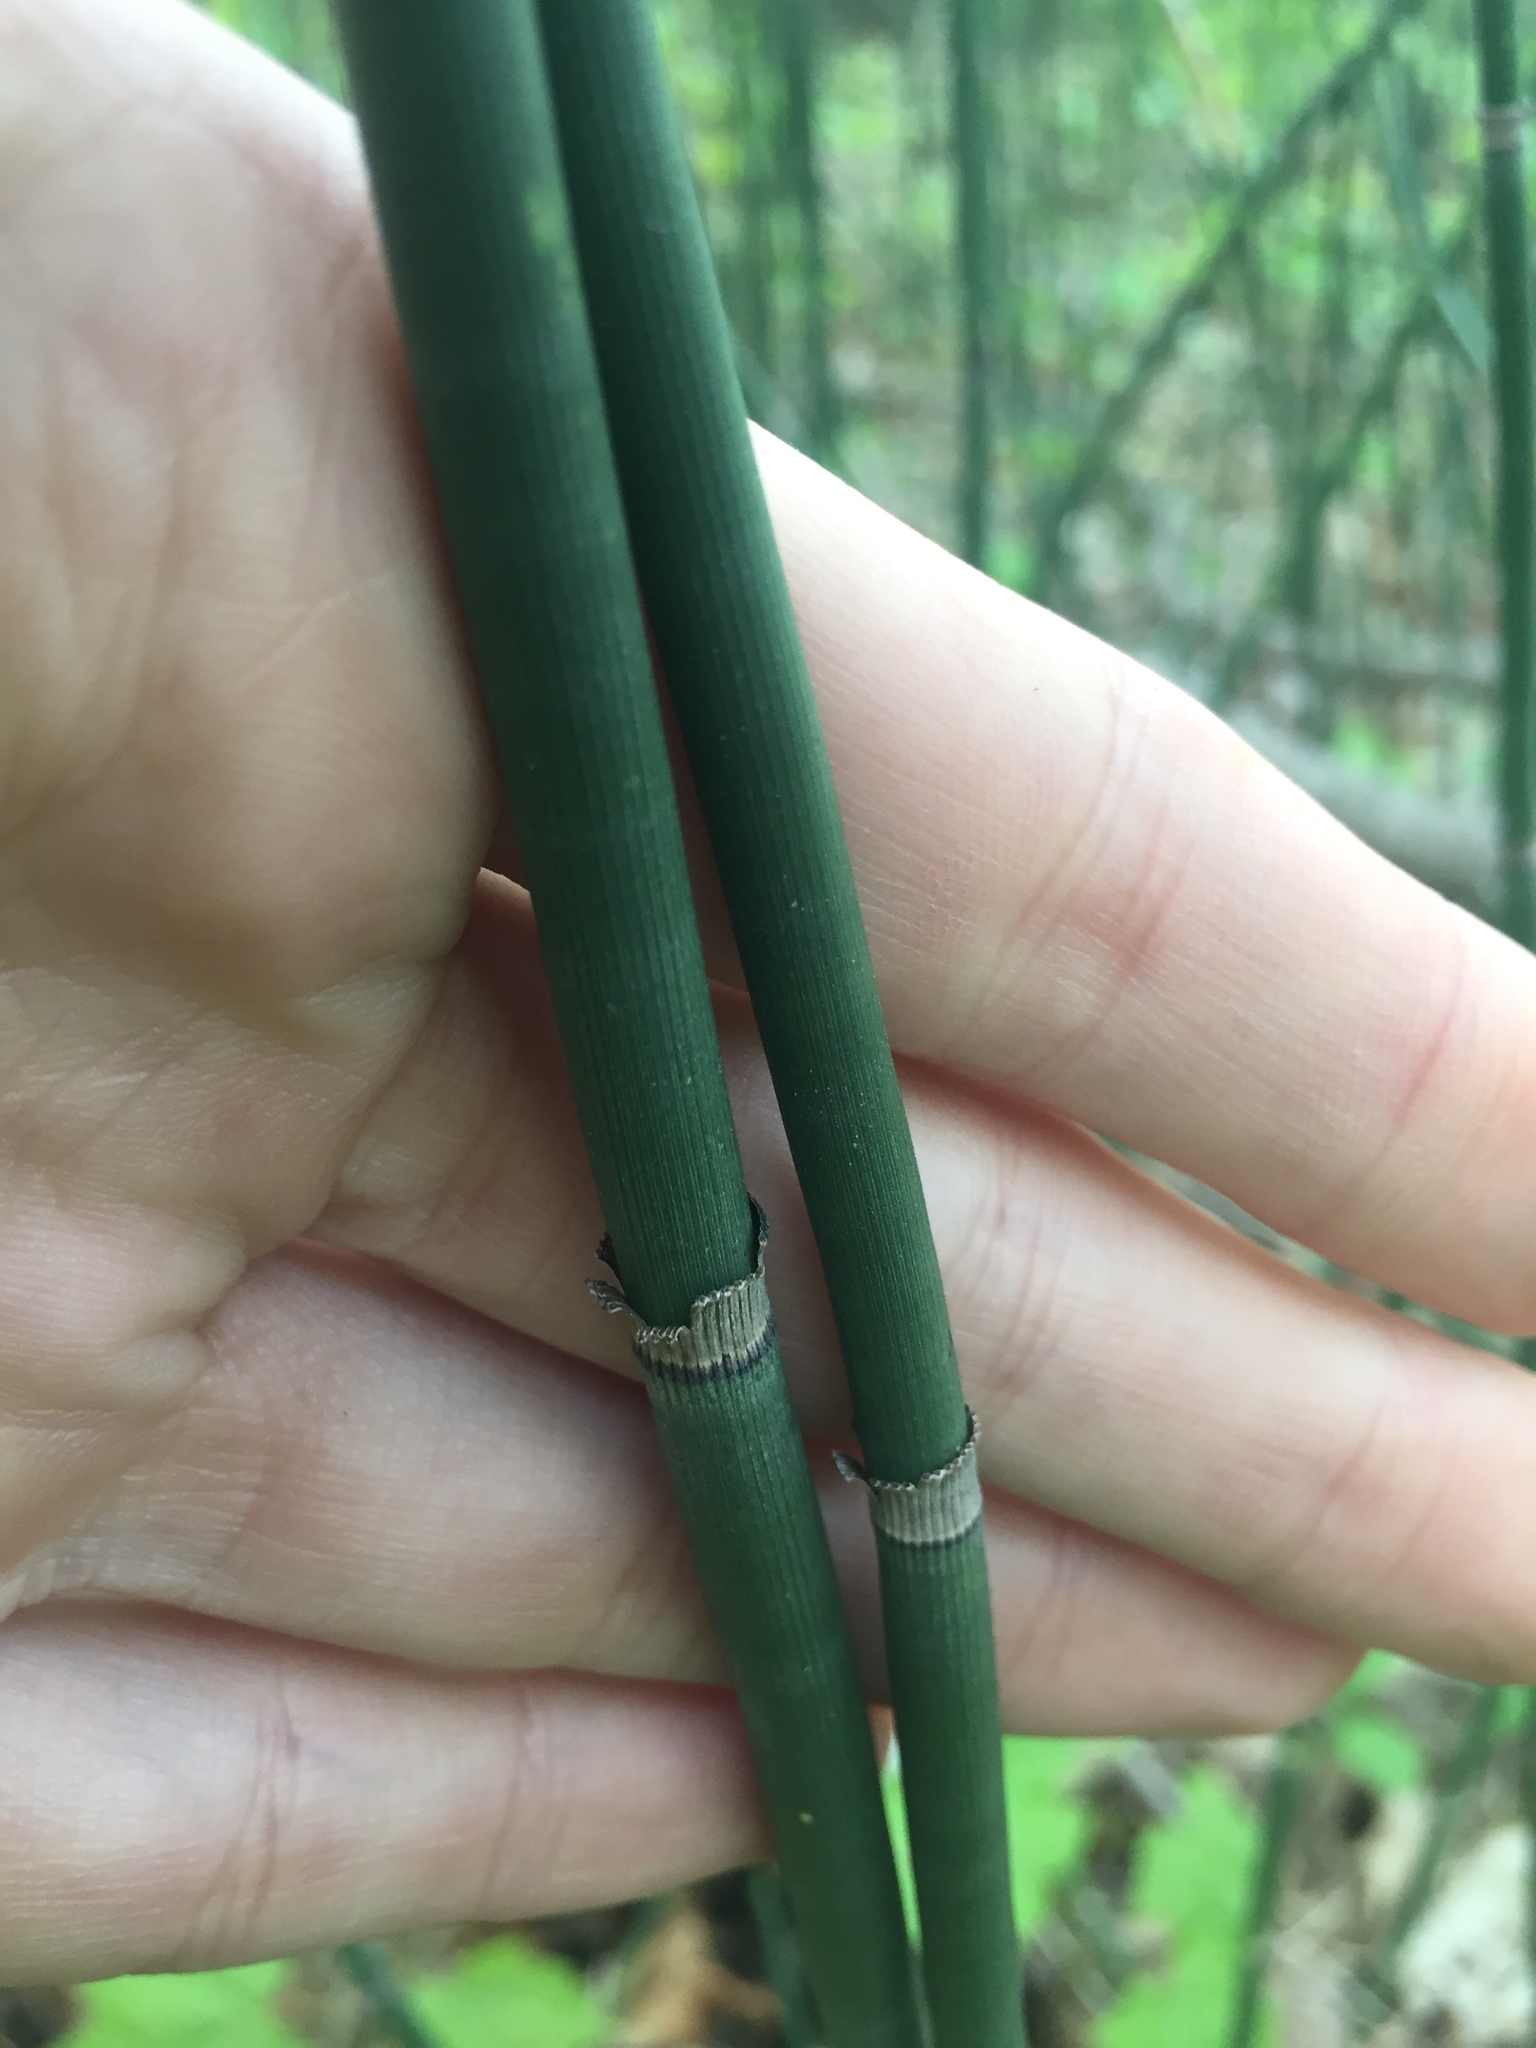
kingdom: Plantae
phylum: Tracheophyta
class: Polypodiopsida
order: Equisetales
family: Equisetaceae
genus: Equisetum
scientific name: Equisetum hyemale
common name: Rough horsetail
